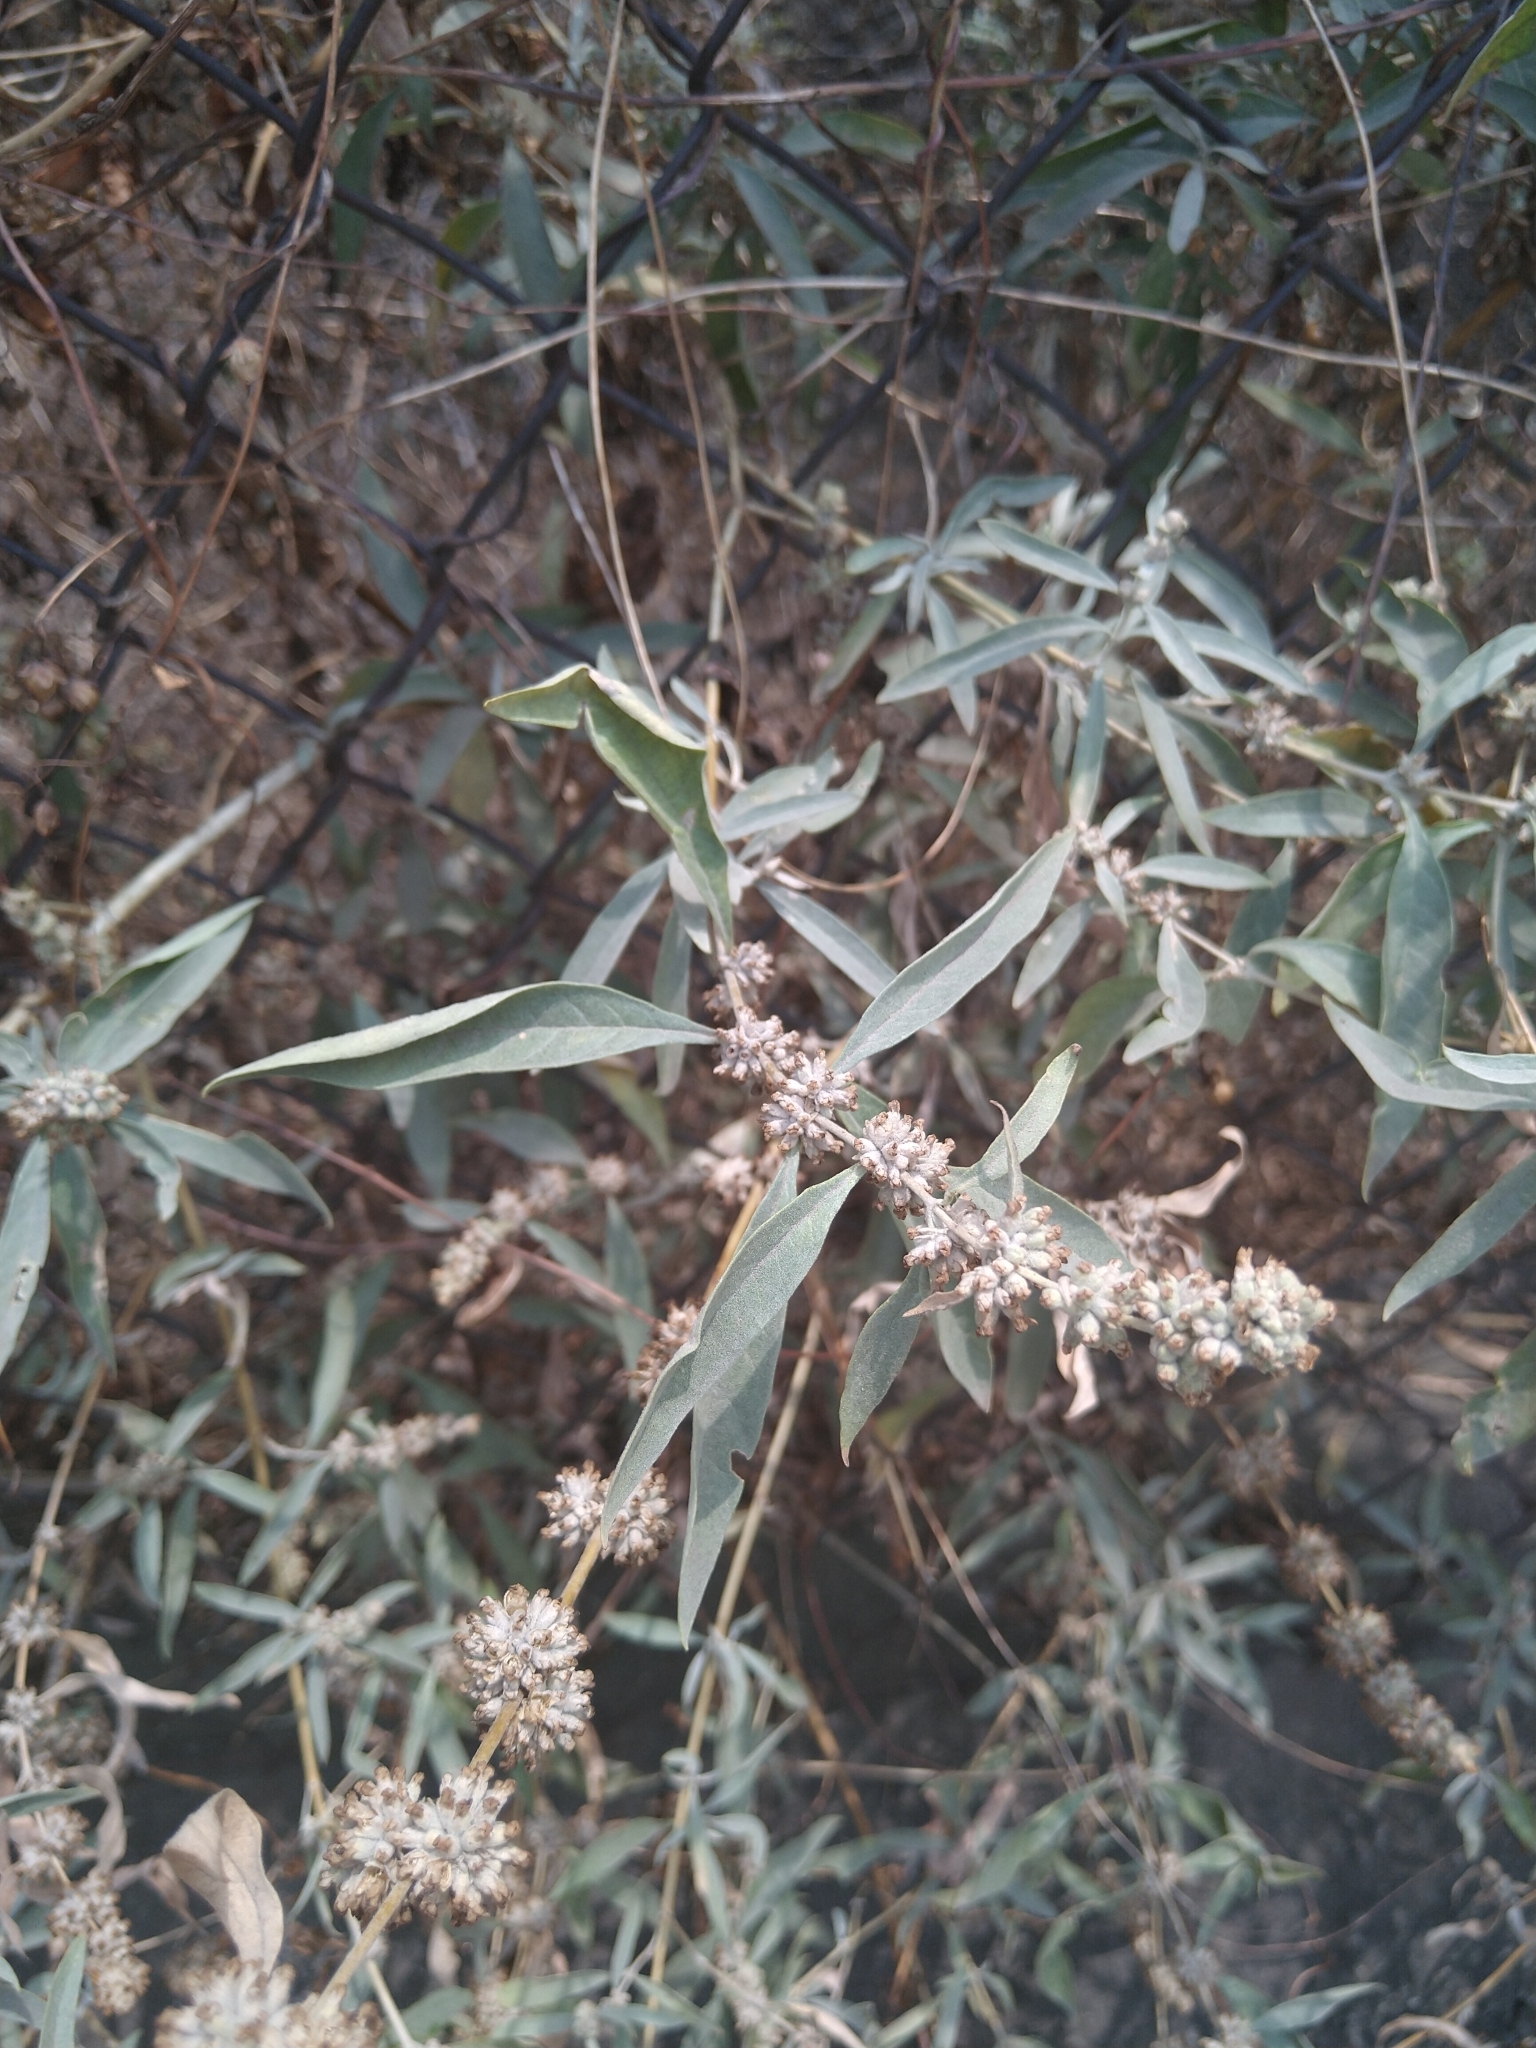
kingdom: Plantae
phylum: Tracheophyta
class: Magnoliopsida
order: Lamiales
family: Scrophulariaceae
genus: Buddleja
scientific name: Buddleja sessiliflora
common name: Rio grande butterfly-bush
